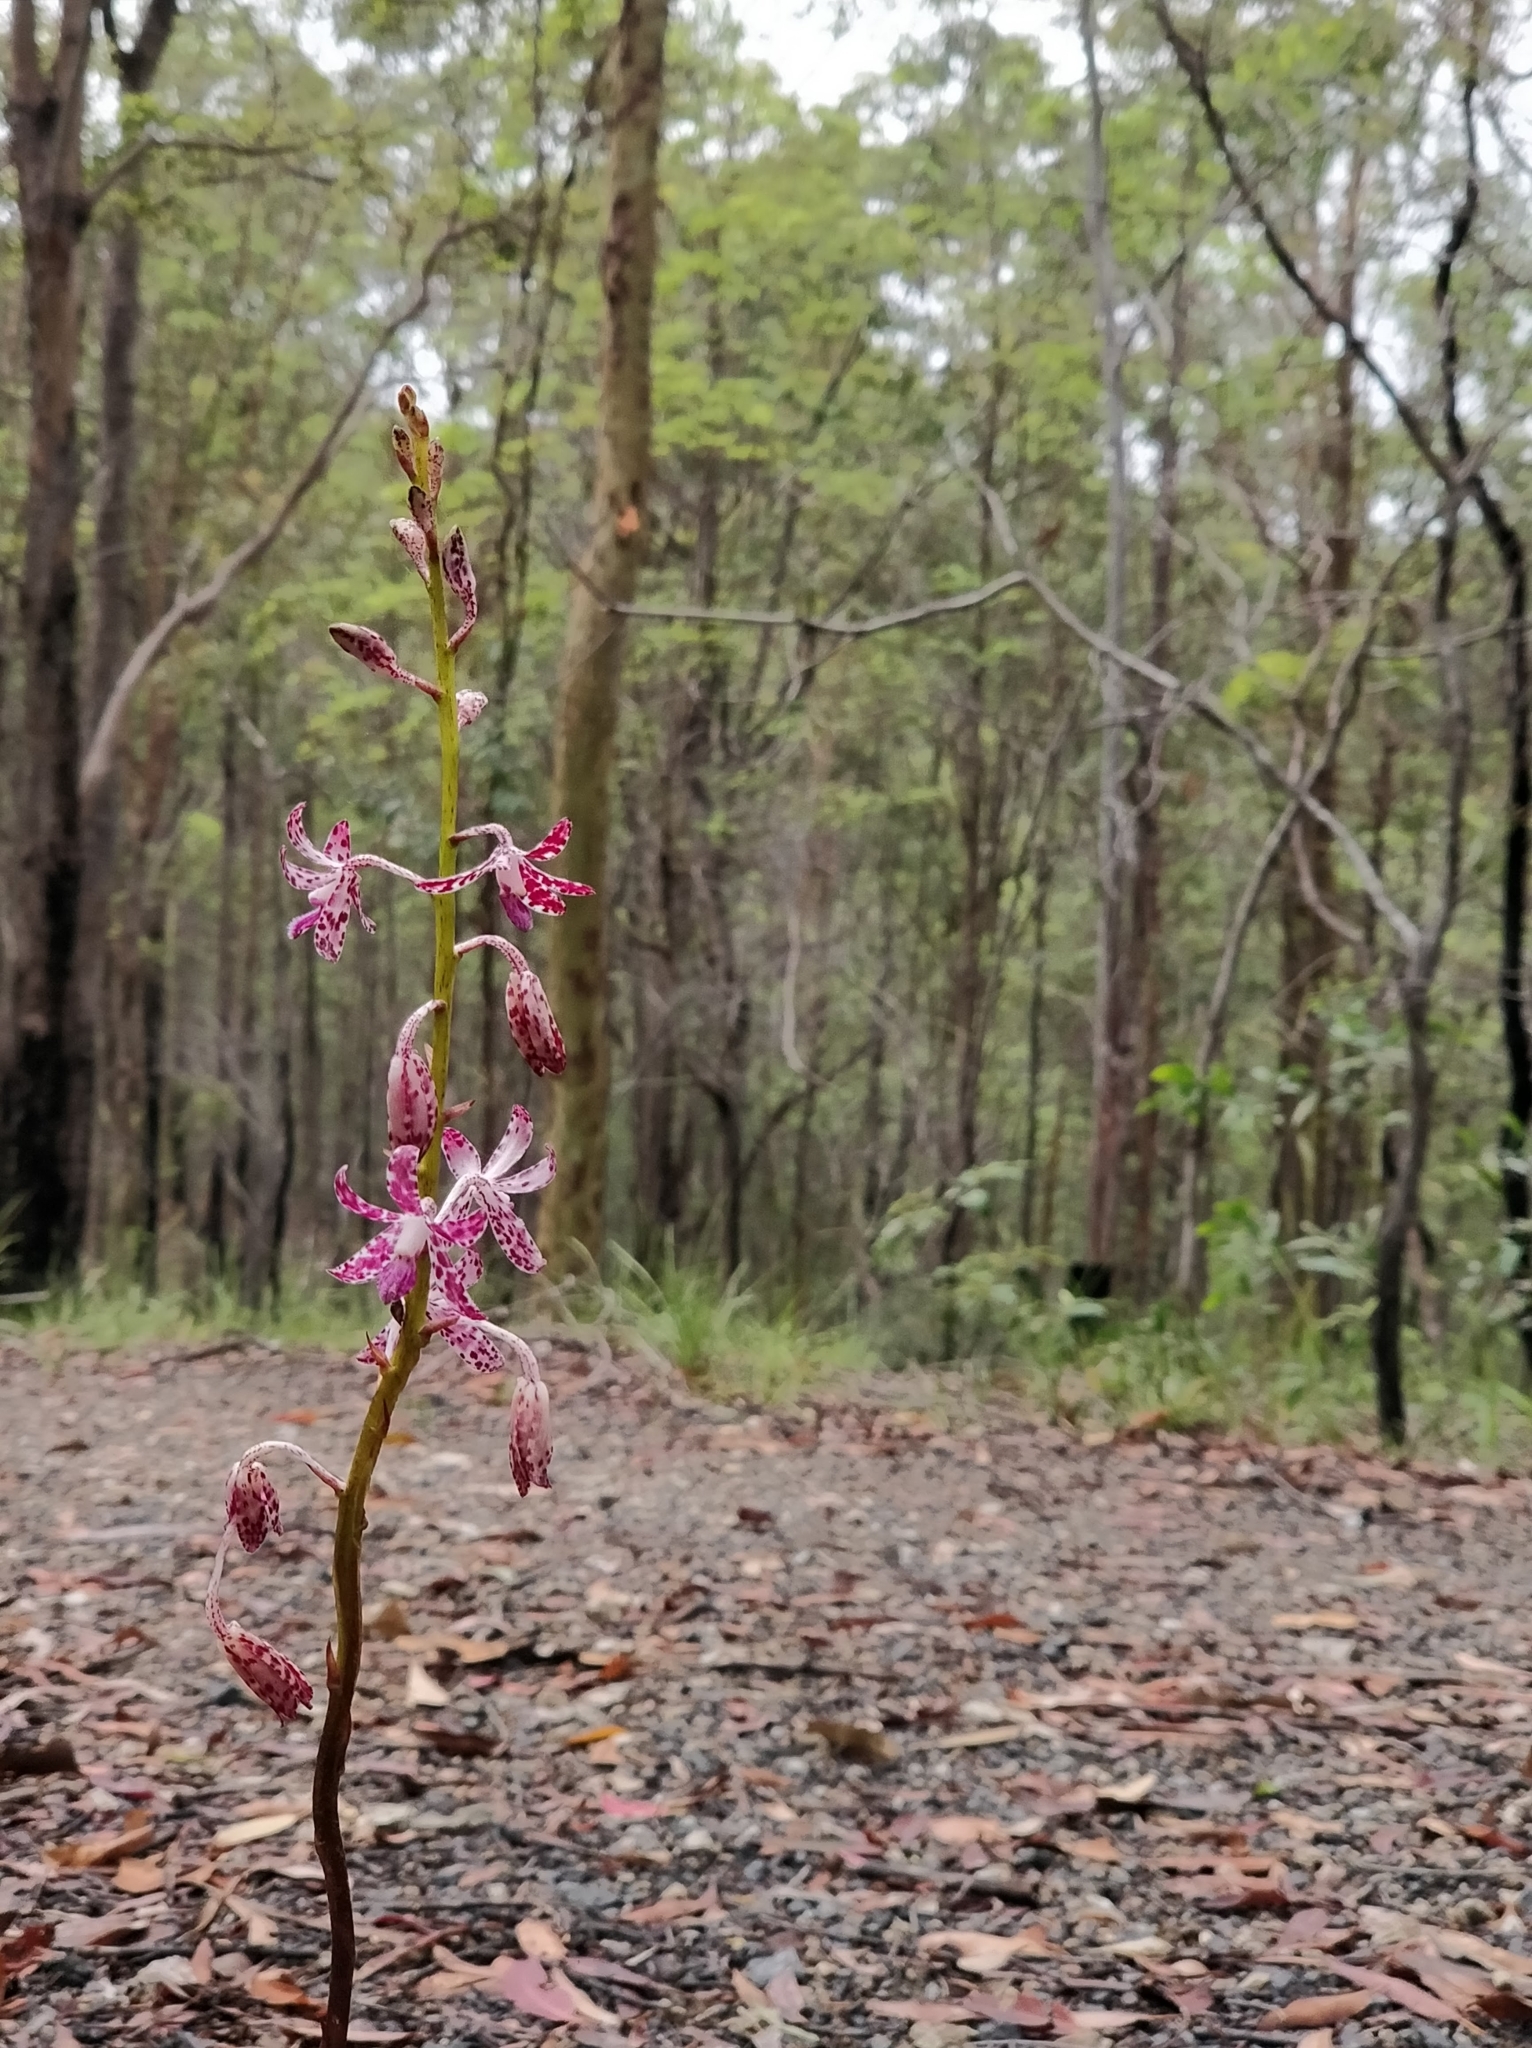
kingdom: Plantae
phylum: Tracheophyta
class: Liliopsida
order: Asparagales
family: Orchidaceae
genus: Dipodium
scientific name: Dipodium variegatum
